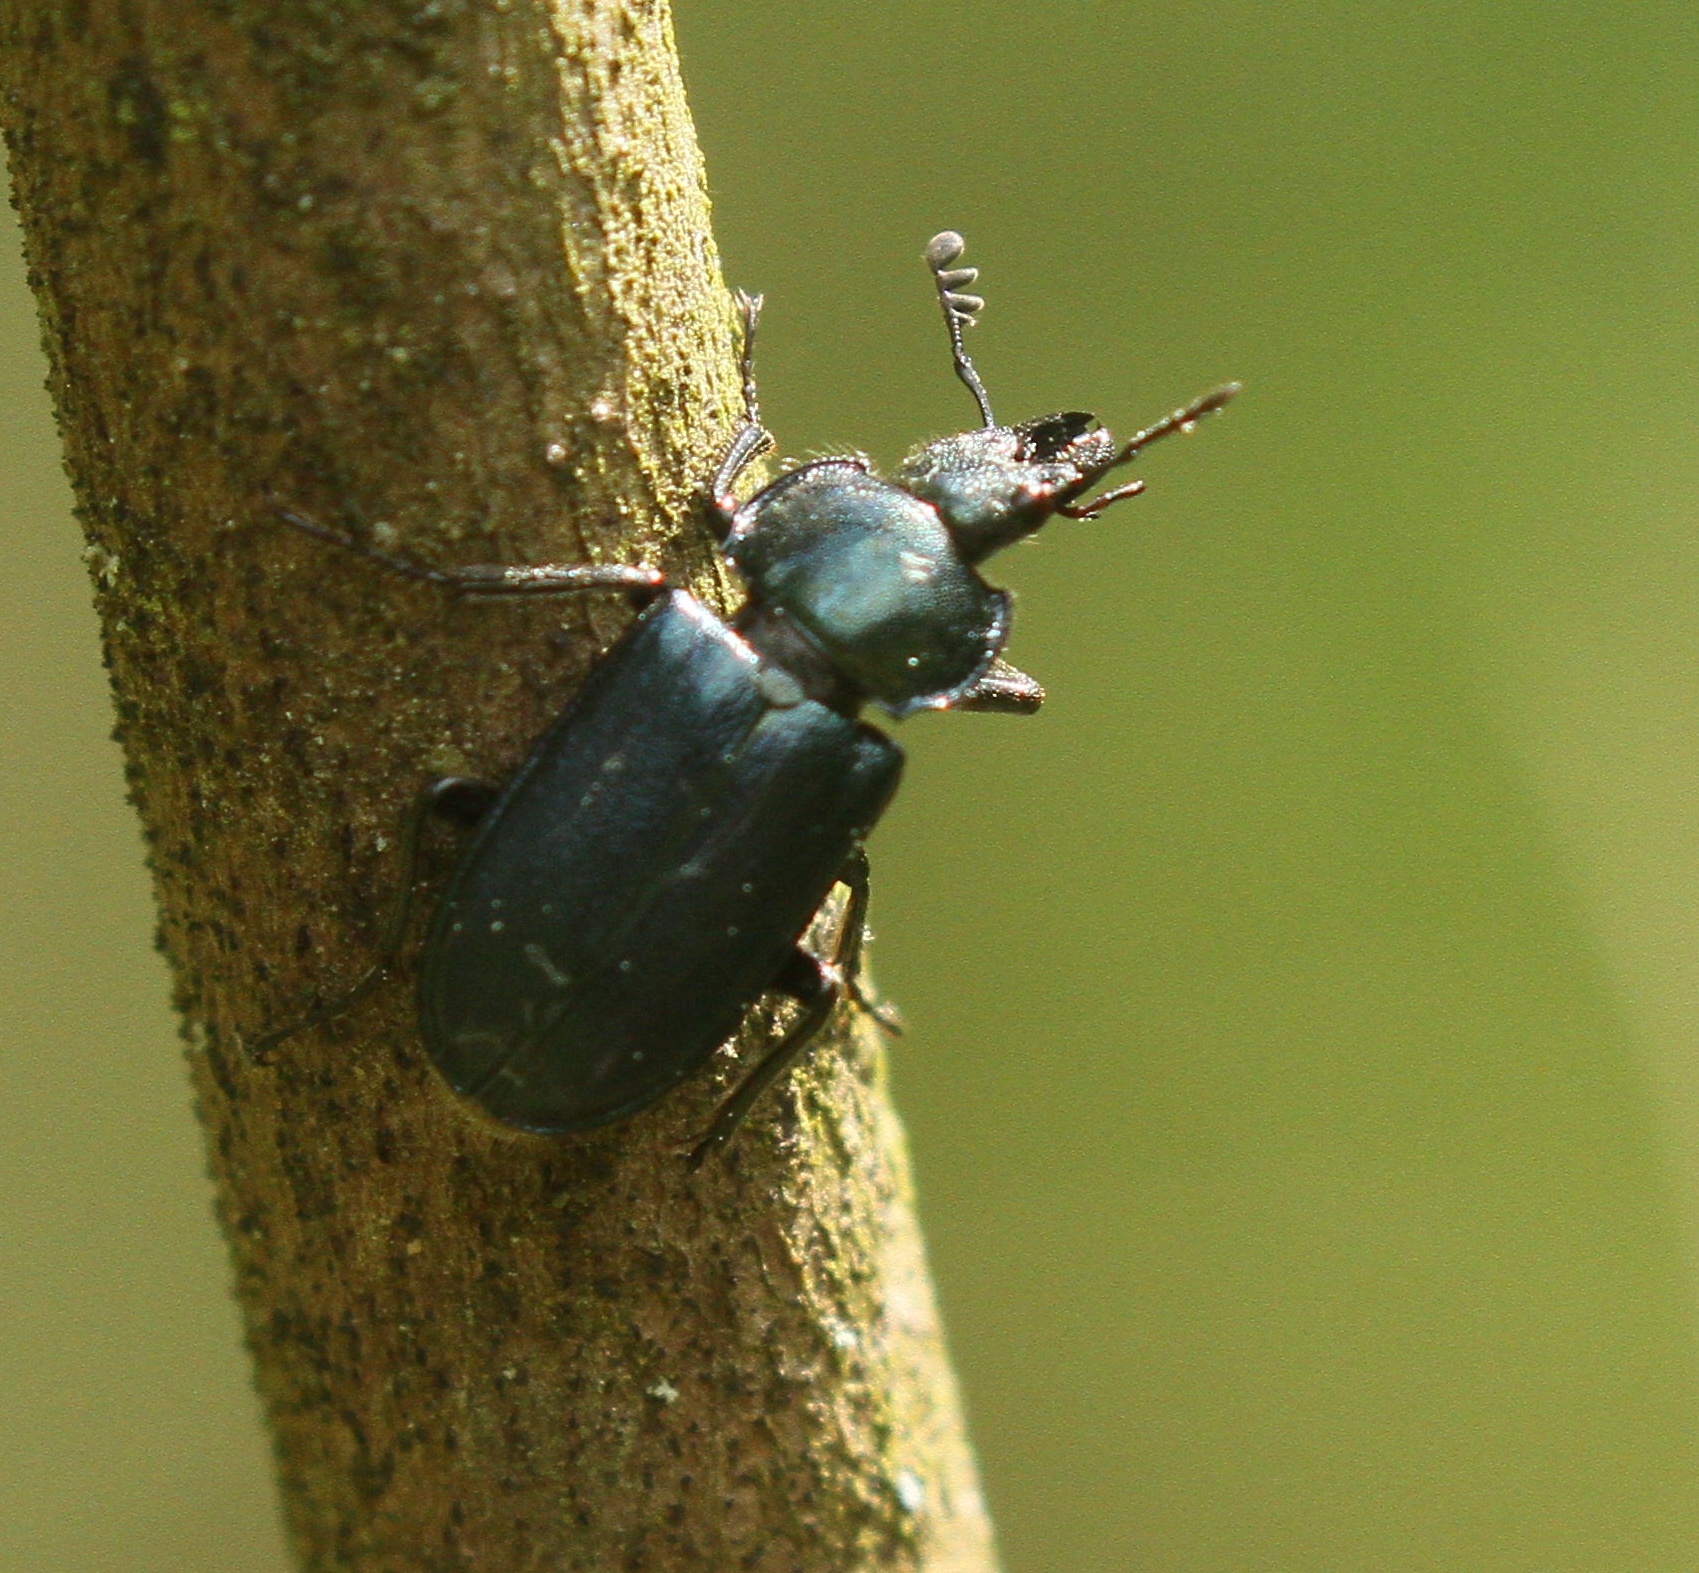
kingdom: Animalia
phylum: Arthropoda
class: Insecta
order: Coleoptera
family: Lucanidae
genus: Platycerus
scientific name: Platycerus caraboides
